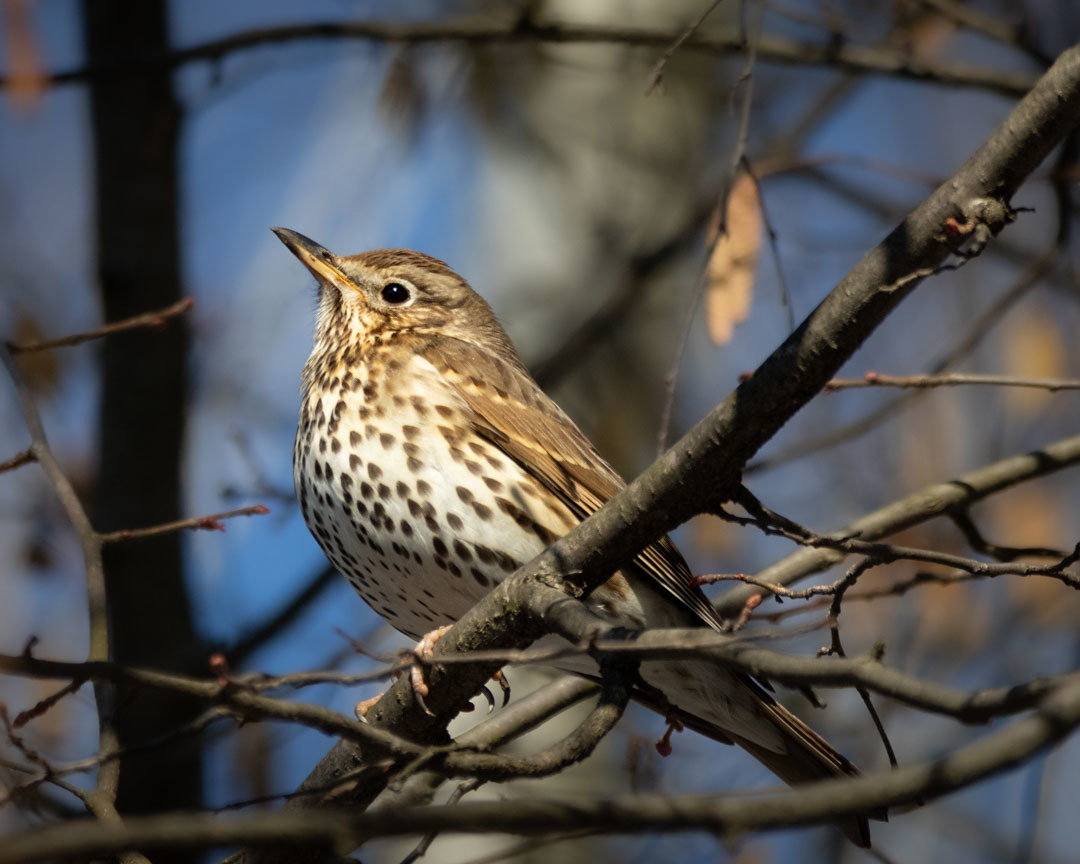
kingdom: Animalia
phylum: Chordata
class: Aves
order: Passeriformes
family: Turdidae
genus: Turdus
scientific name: Turdus philomelos
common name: Song thrush
